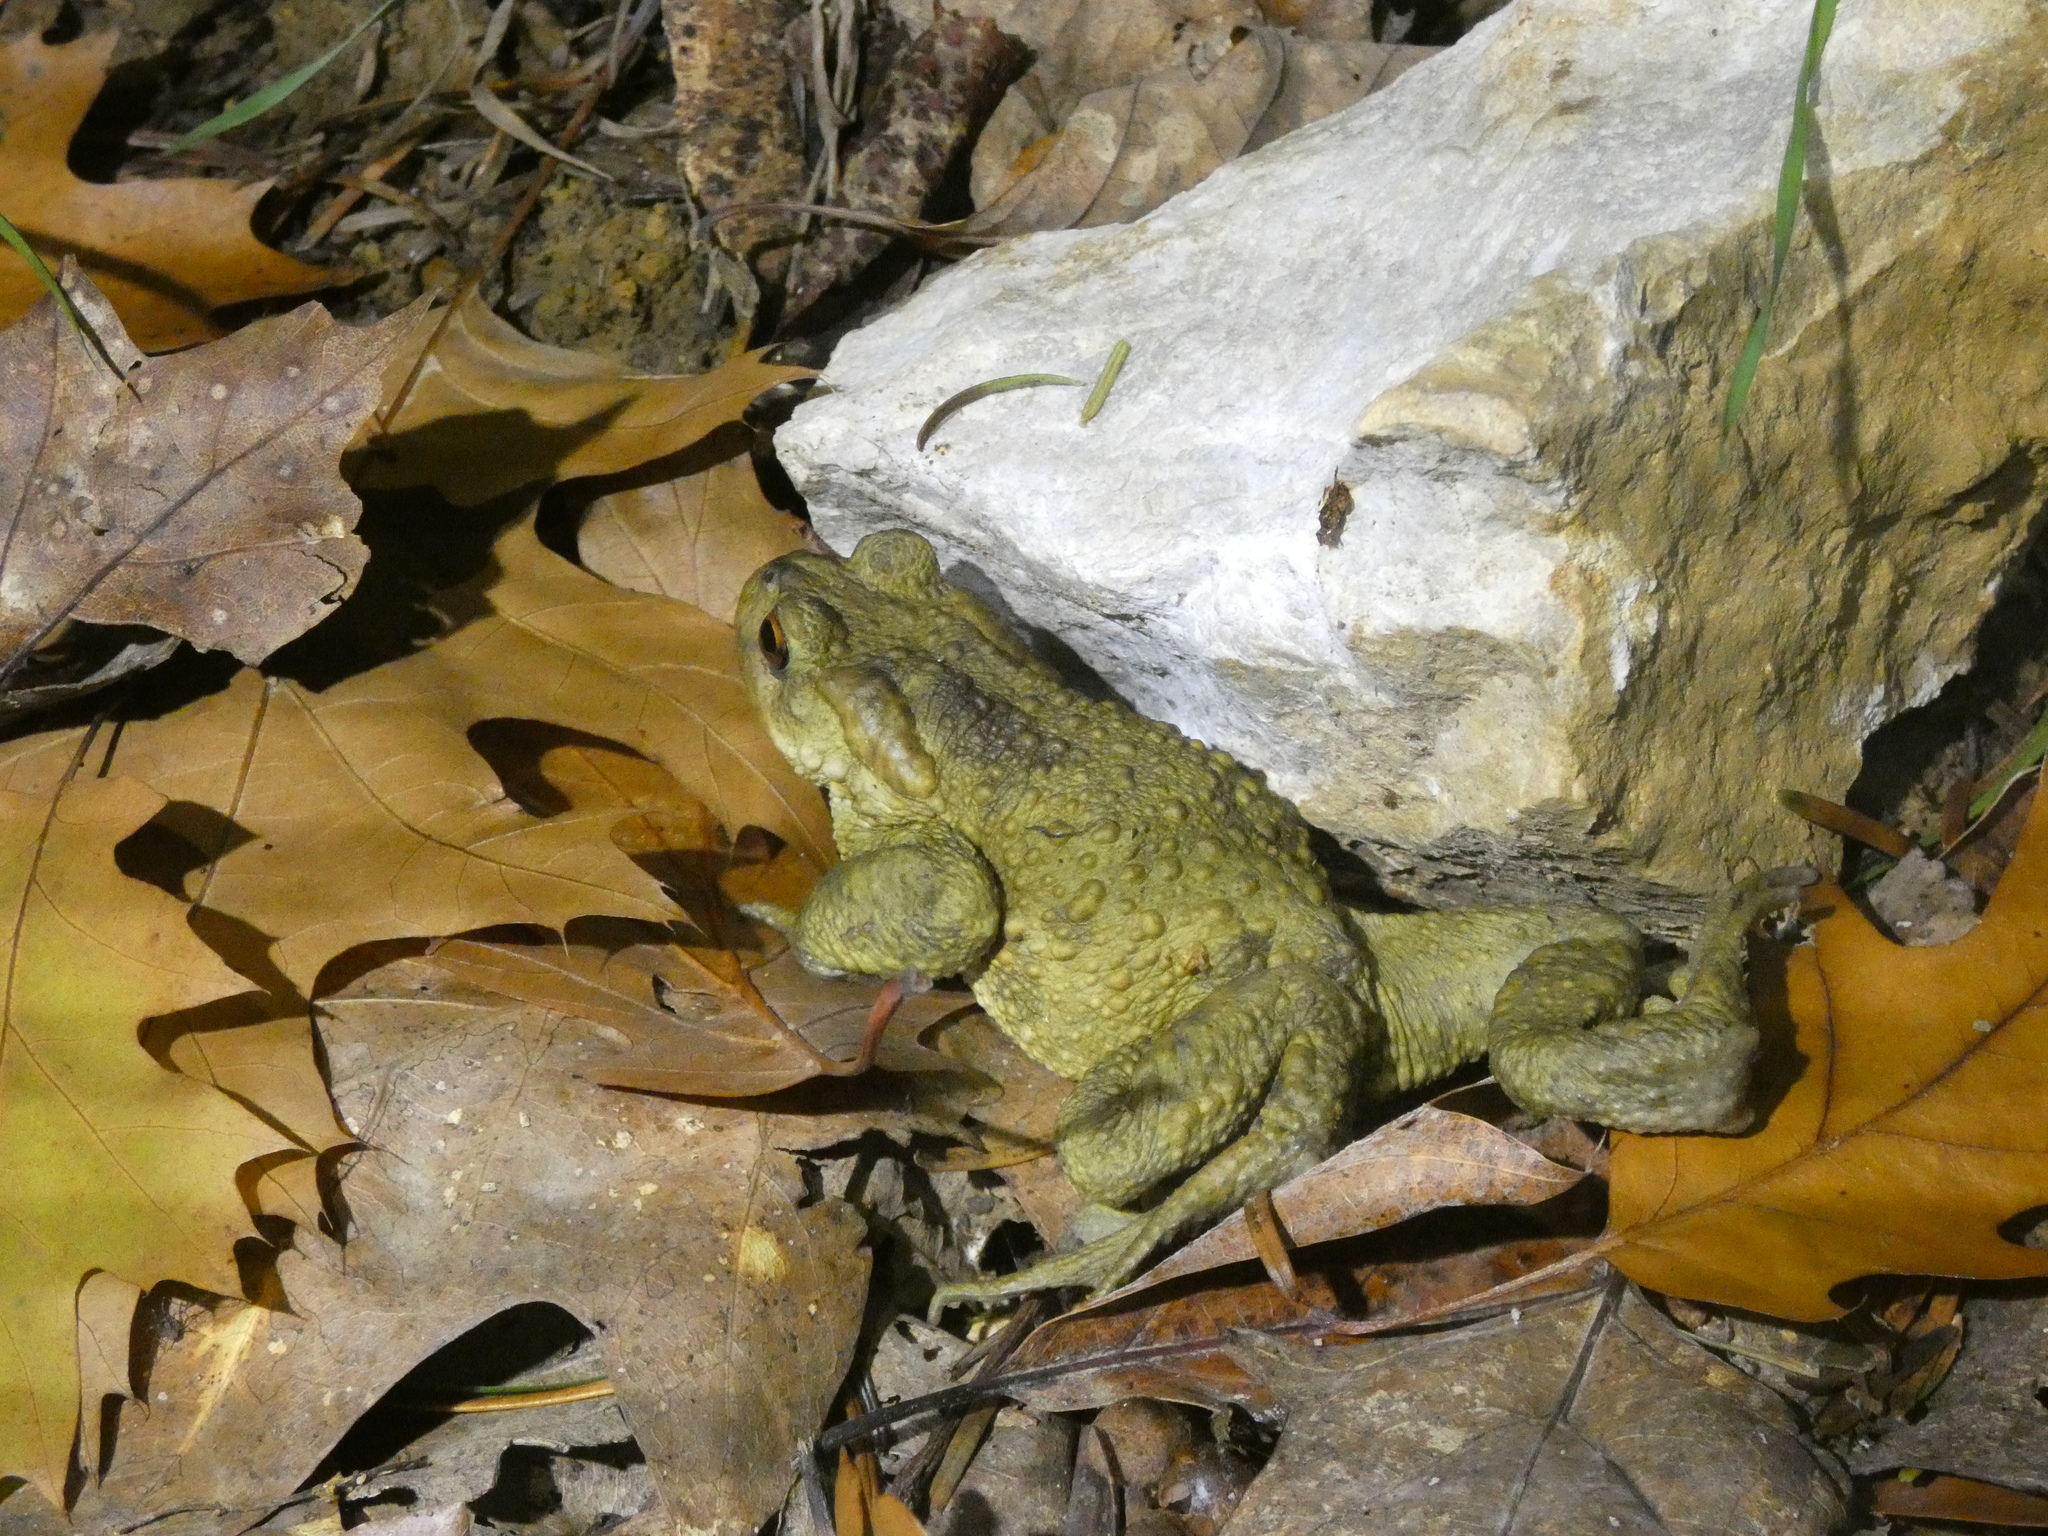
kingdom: Animalia
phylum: Chordata
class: Amphibia
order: Anura
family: Bufonidae
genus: Bufo
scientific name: Bufo bufo
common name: Common toad
